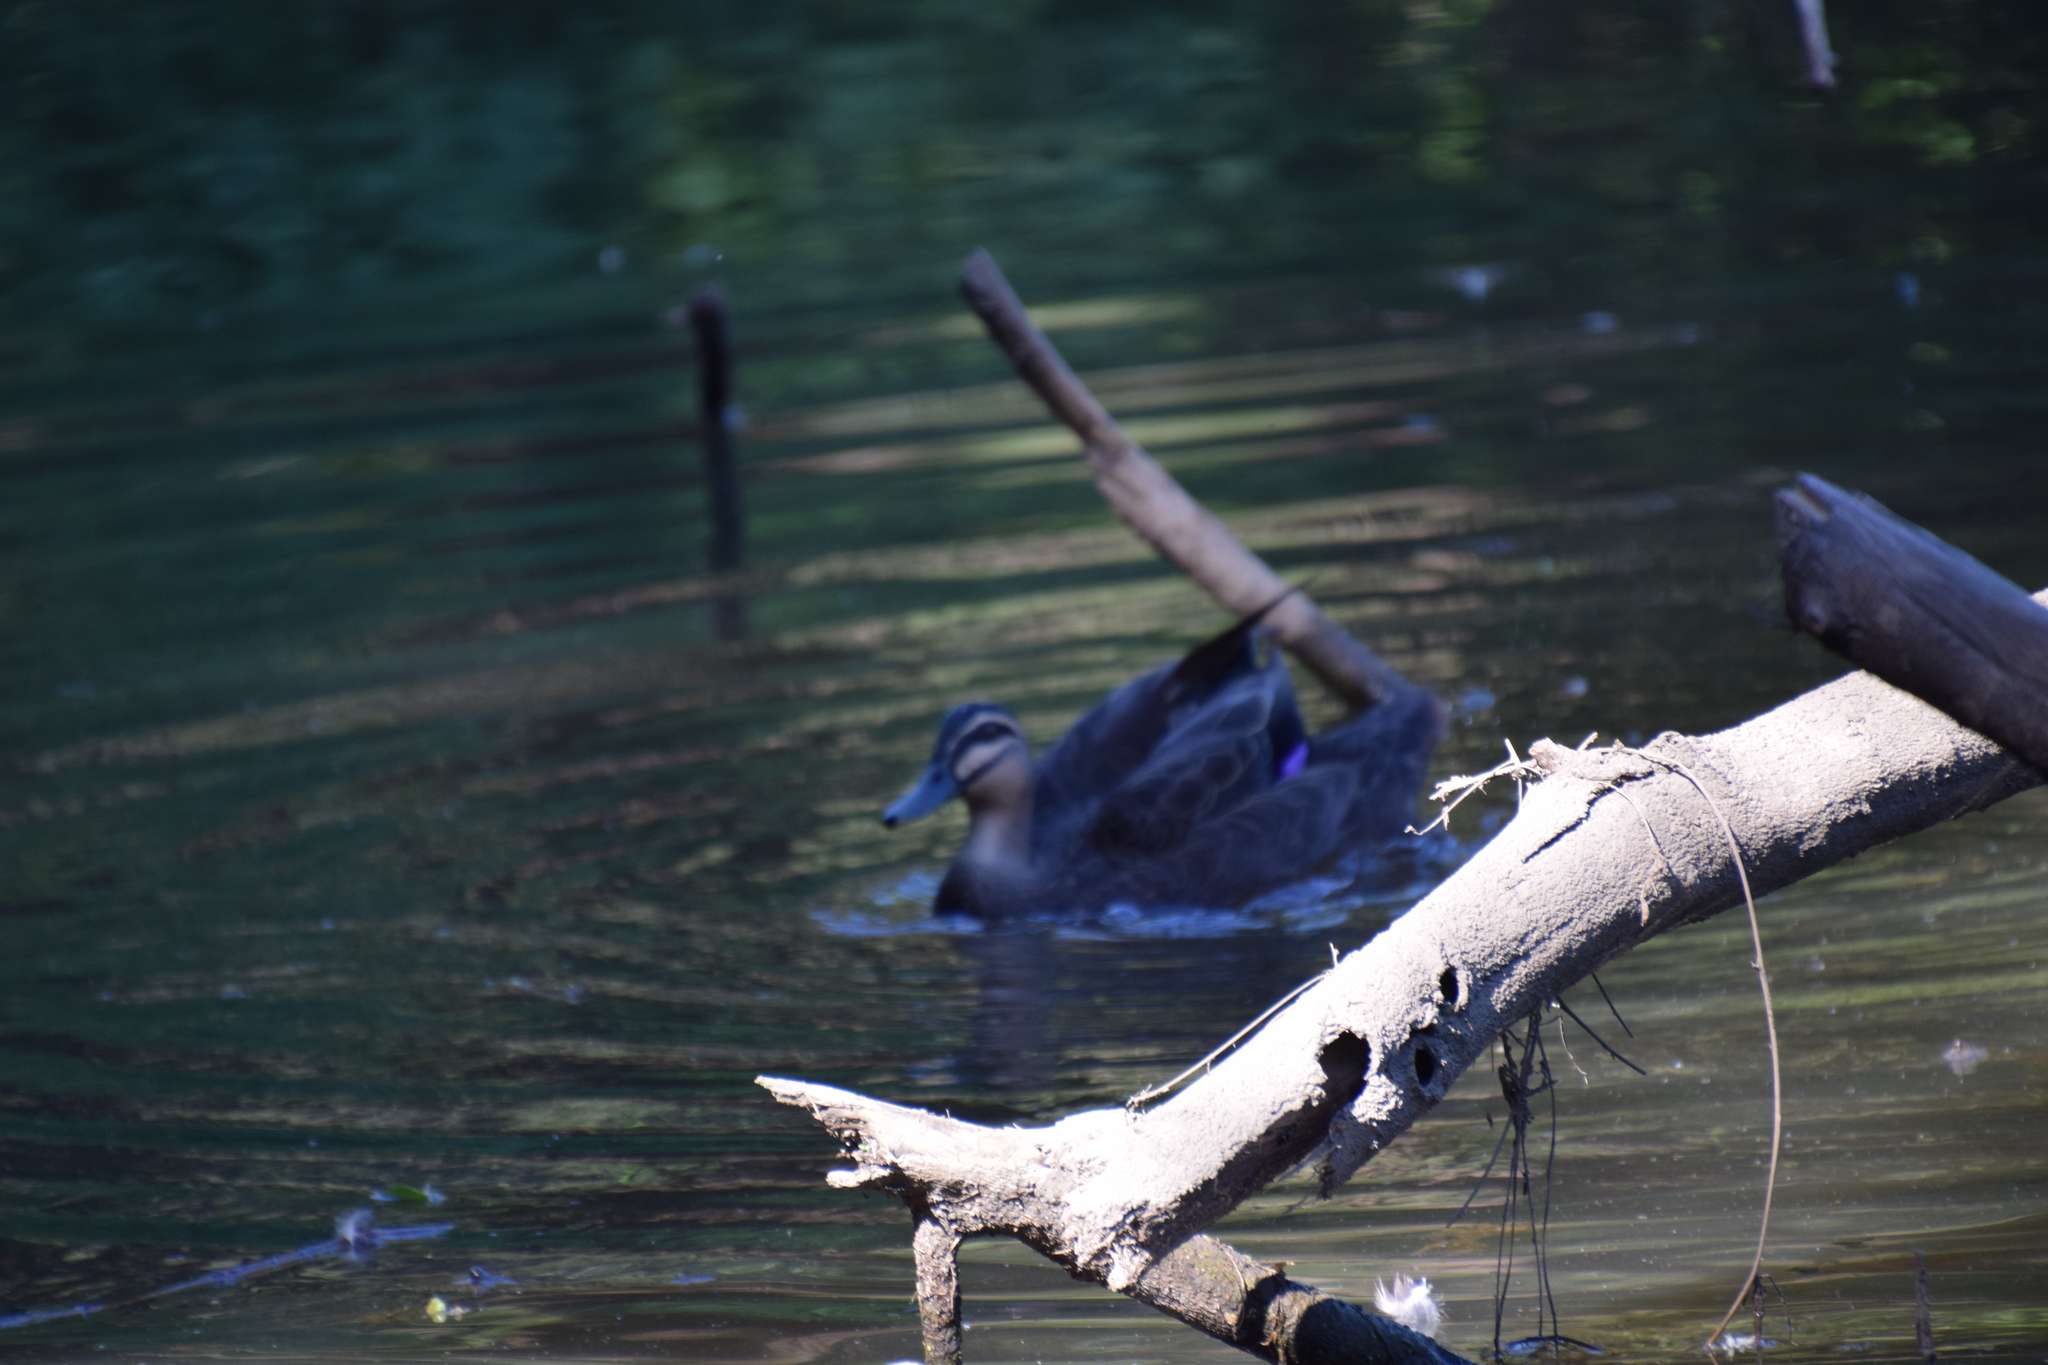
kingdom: Animalia
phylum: Chordata
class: Aves
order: Anseriformes
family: Anatidae
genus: Anas
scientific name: Anas superciliosa
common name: Pacific black duck
